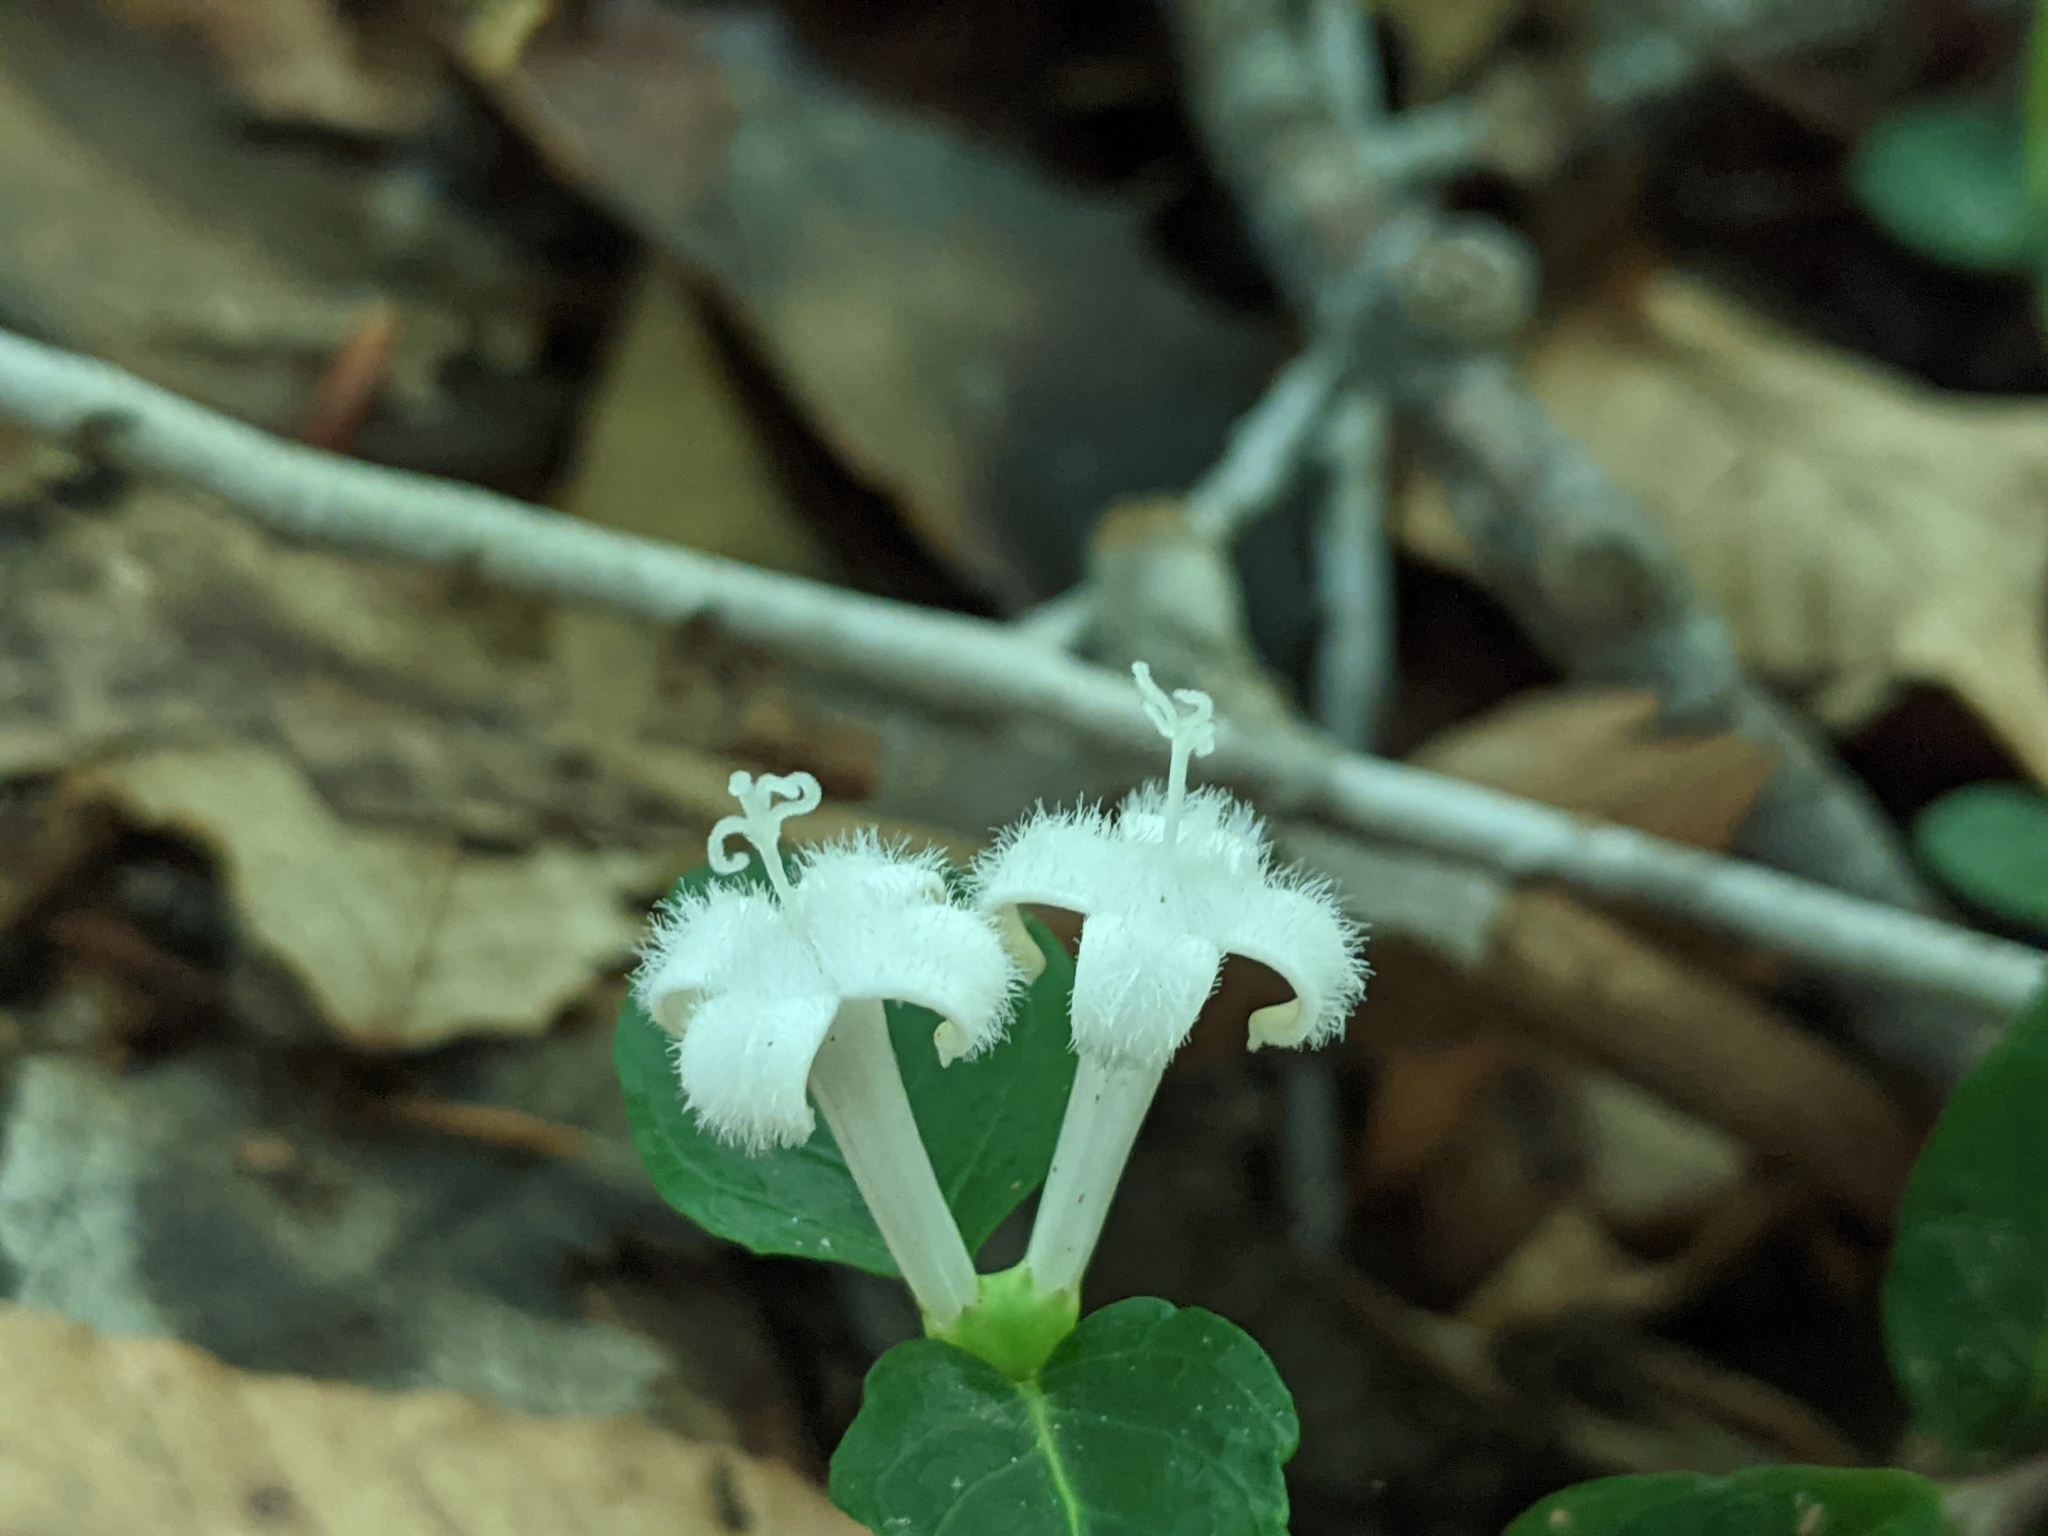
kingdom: Plantae
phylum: Tracheophyta
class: Magnoliopsida
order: Gentianales
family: Rubiaceae
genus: Mitchella
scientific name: Mitchella repens
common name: Partridge-berry
